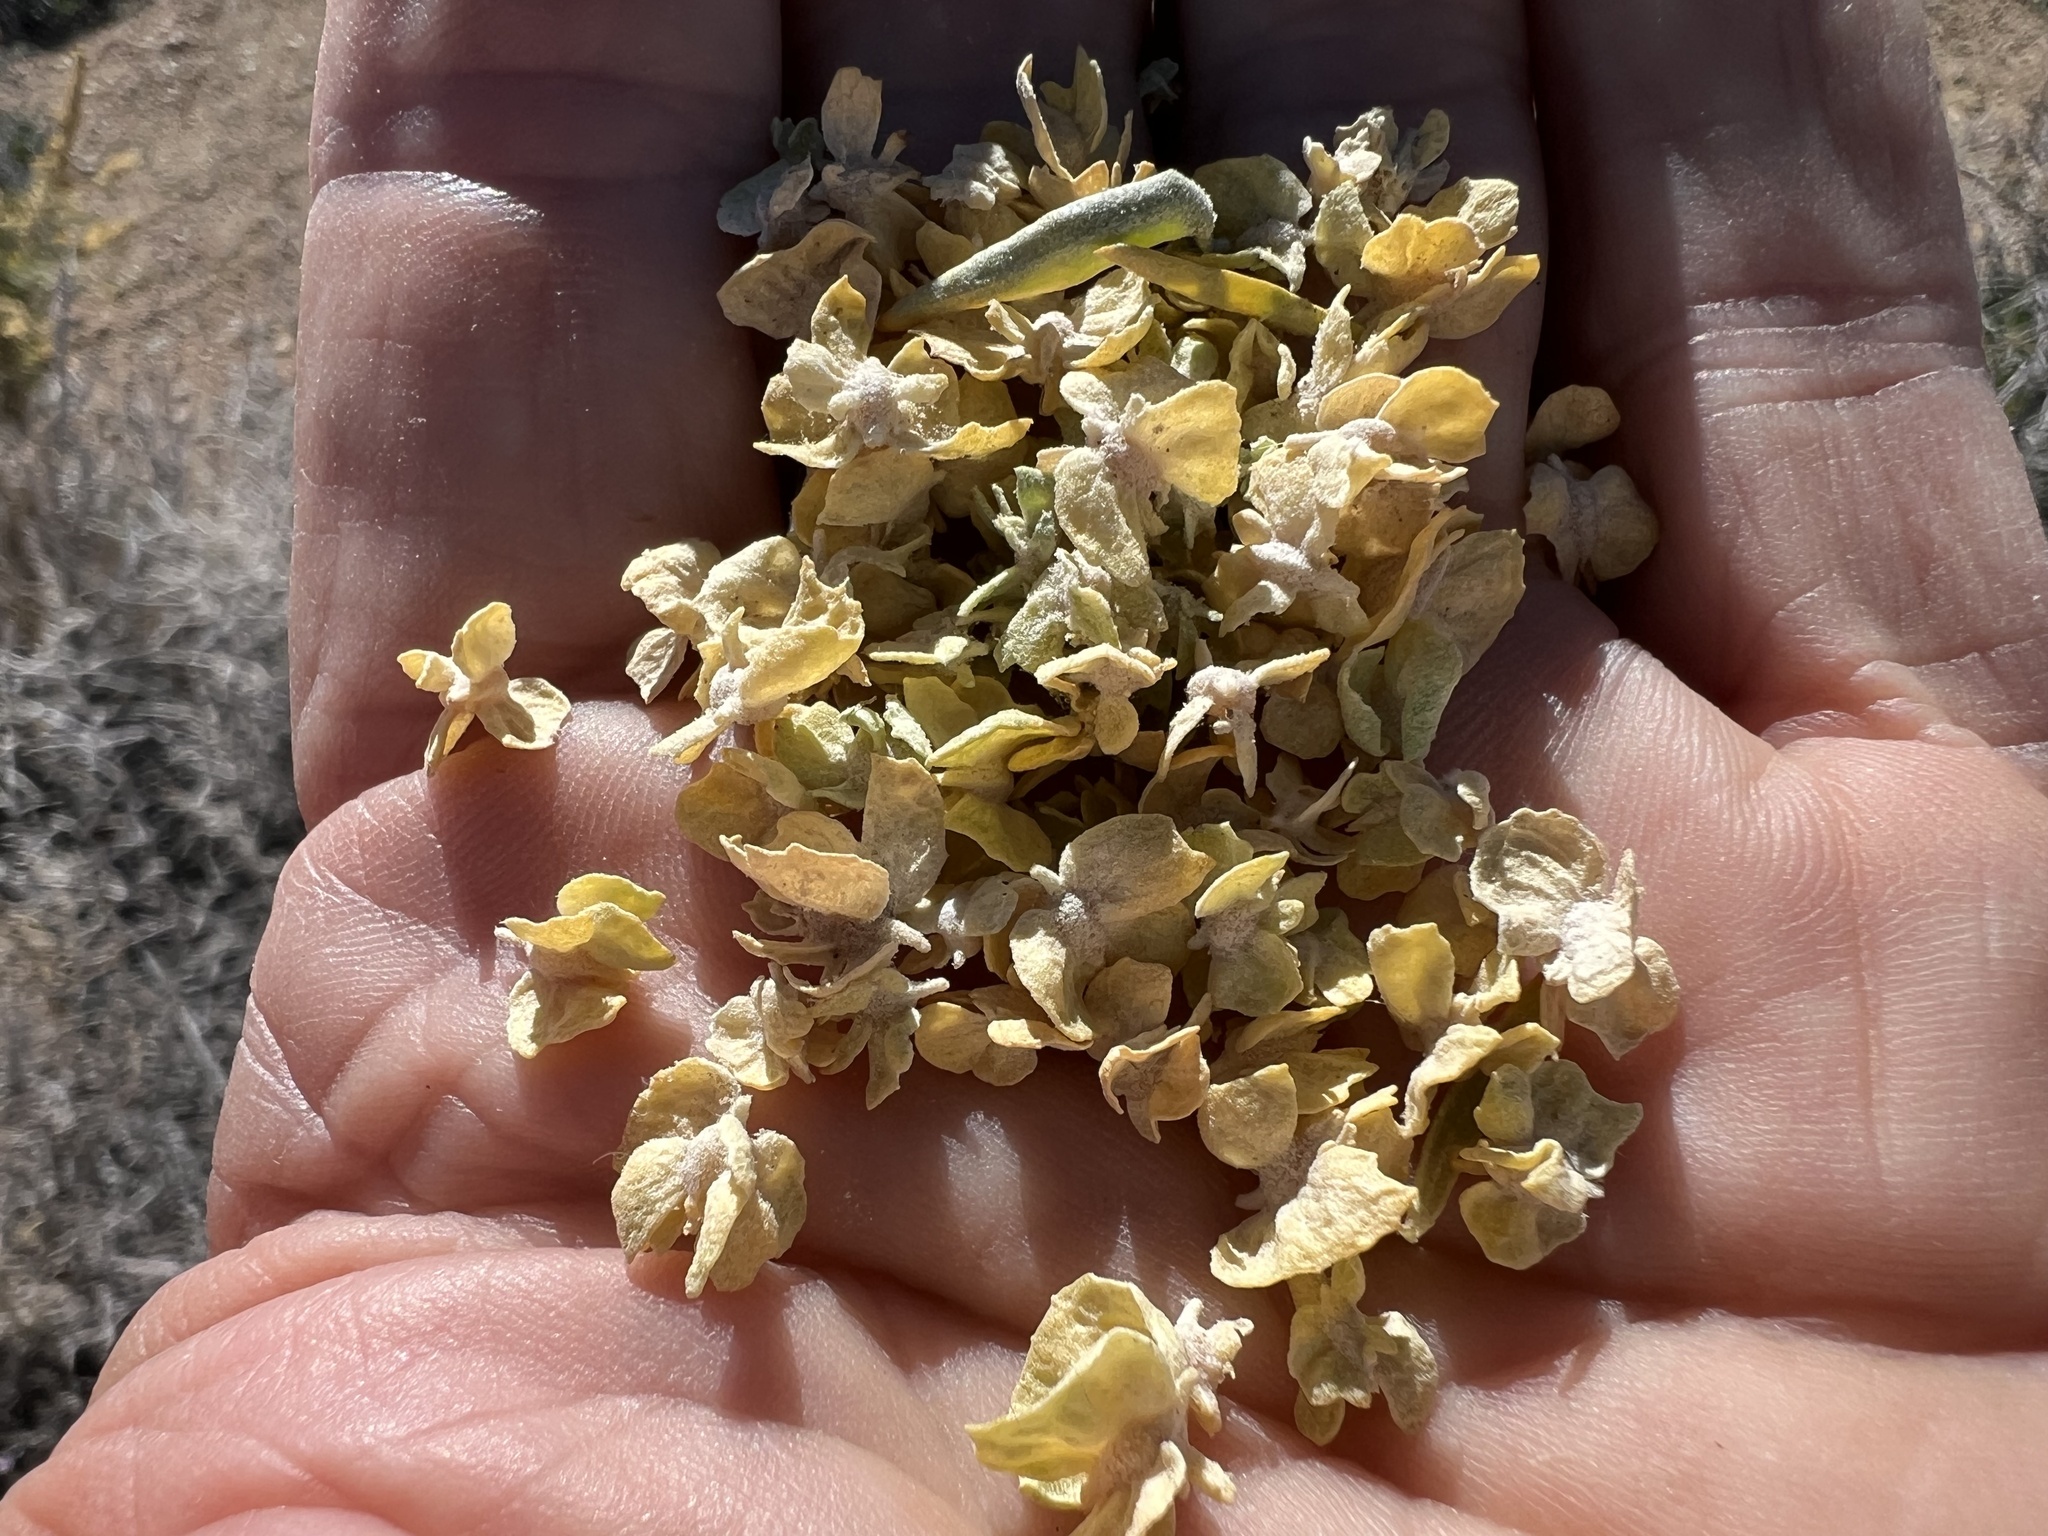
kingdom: Plantae
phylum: Tracheophyta
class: Magnoliopsida
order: Caryophyllales
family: Amaranthaceae
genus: Atriplex
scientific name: Atriplex canescens
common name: Four-wing saltbush
